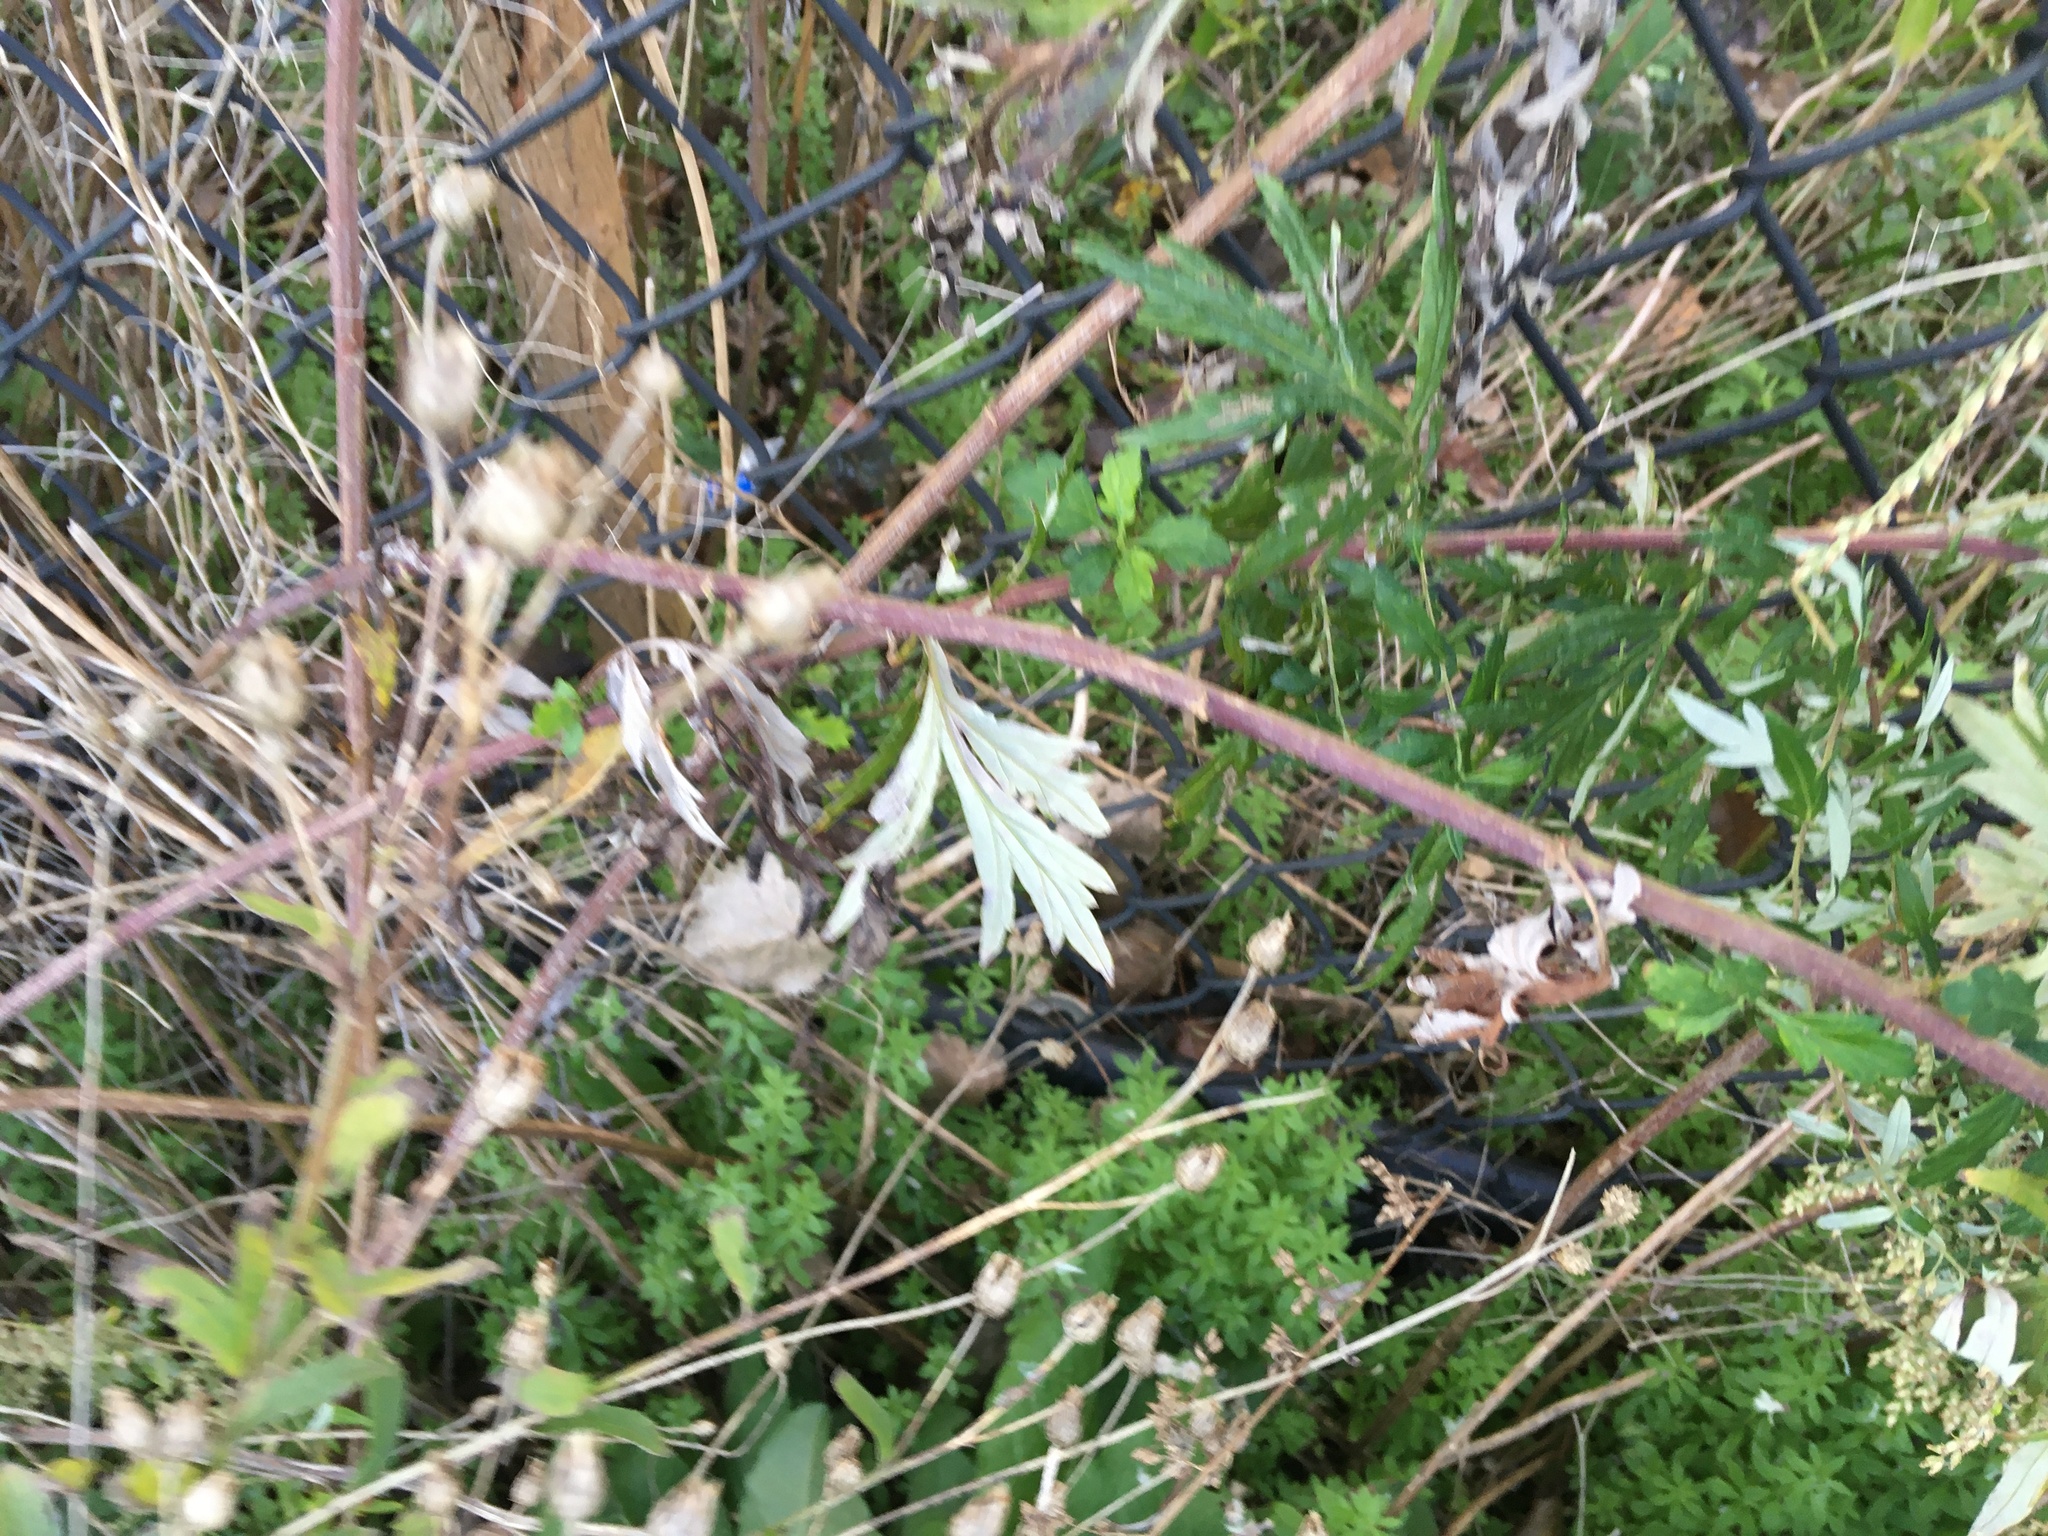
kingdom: Plantae
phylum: Tracheophyta
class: Magnoliopsida
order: Asterales
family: Asteraceae
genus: Artemisia
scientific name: Artemisia vulgaris
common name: Mugwort
